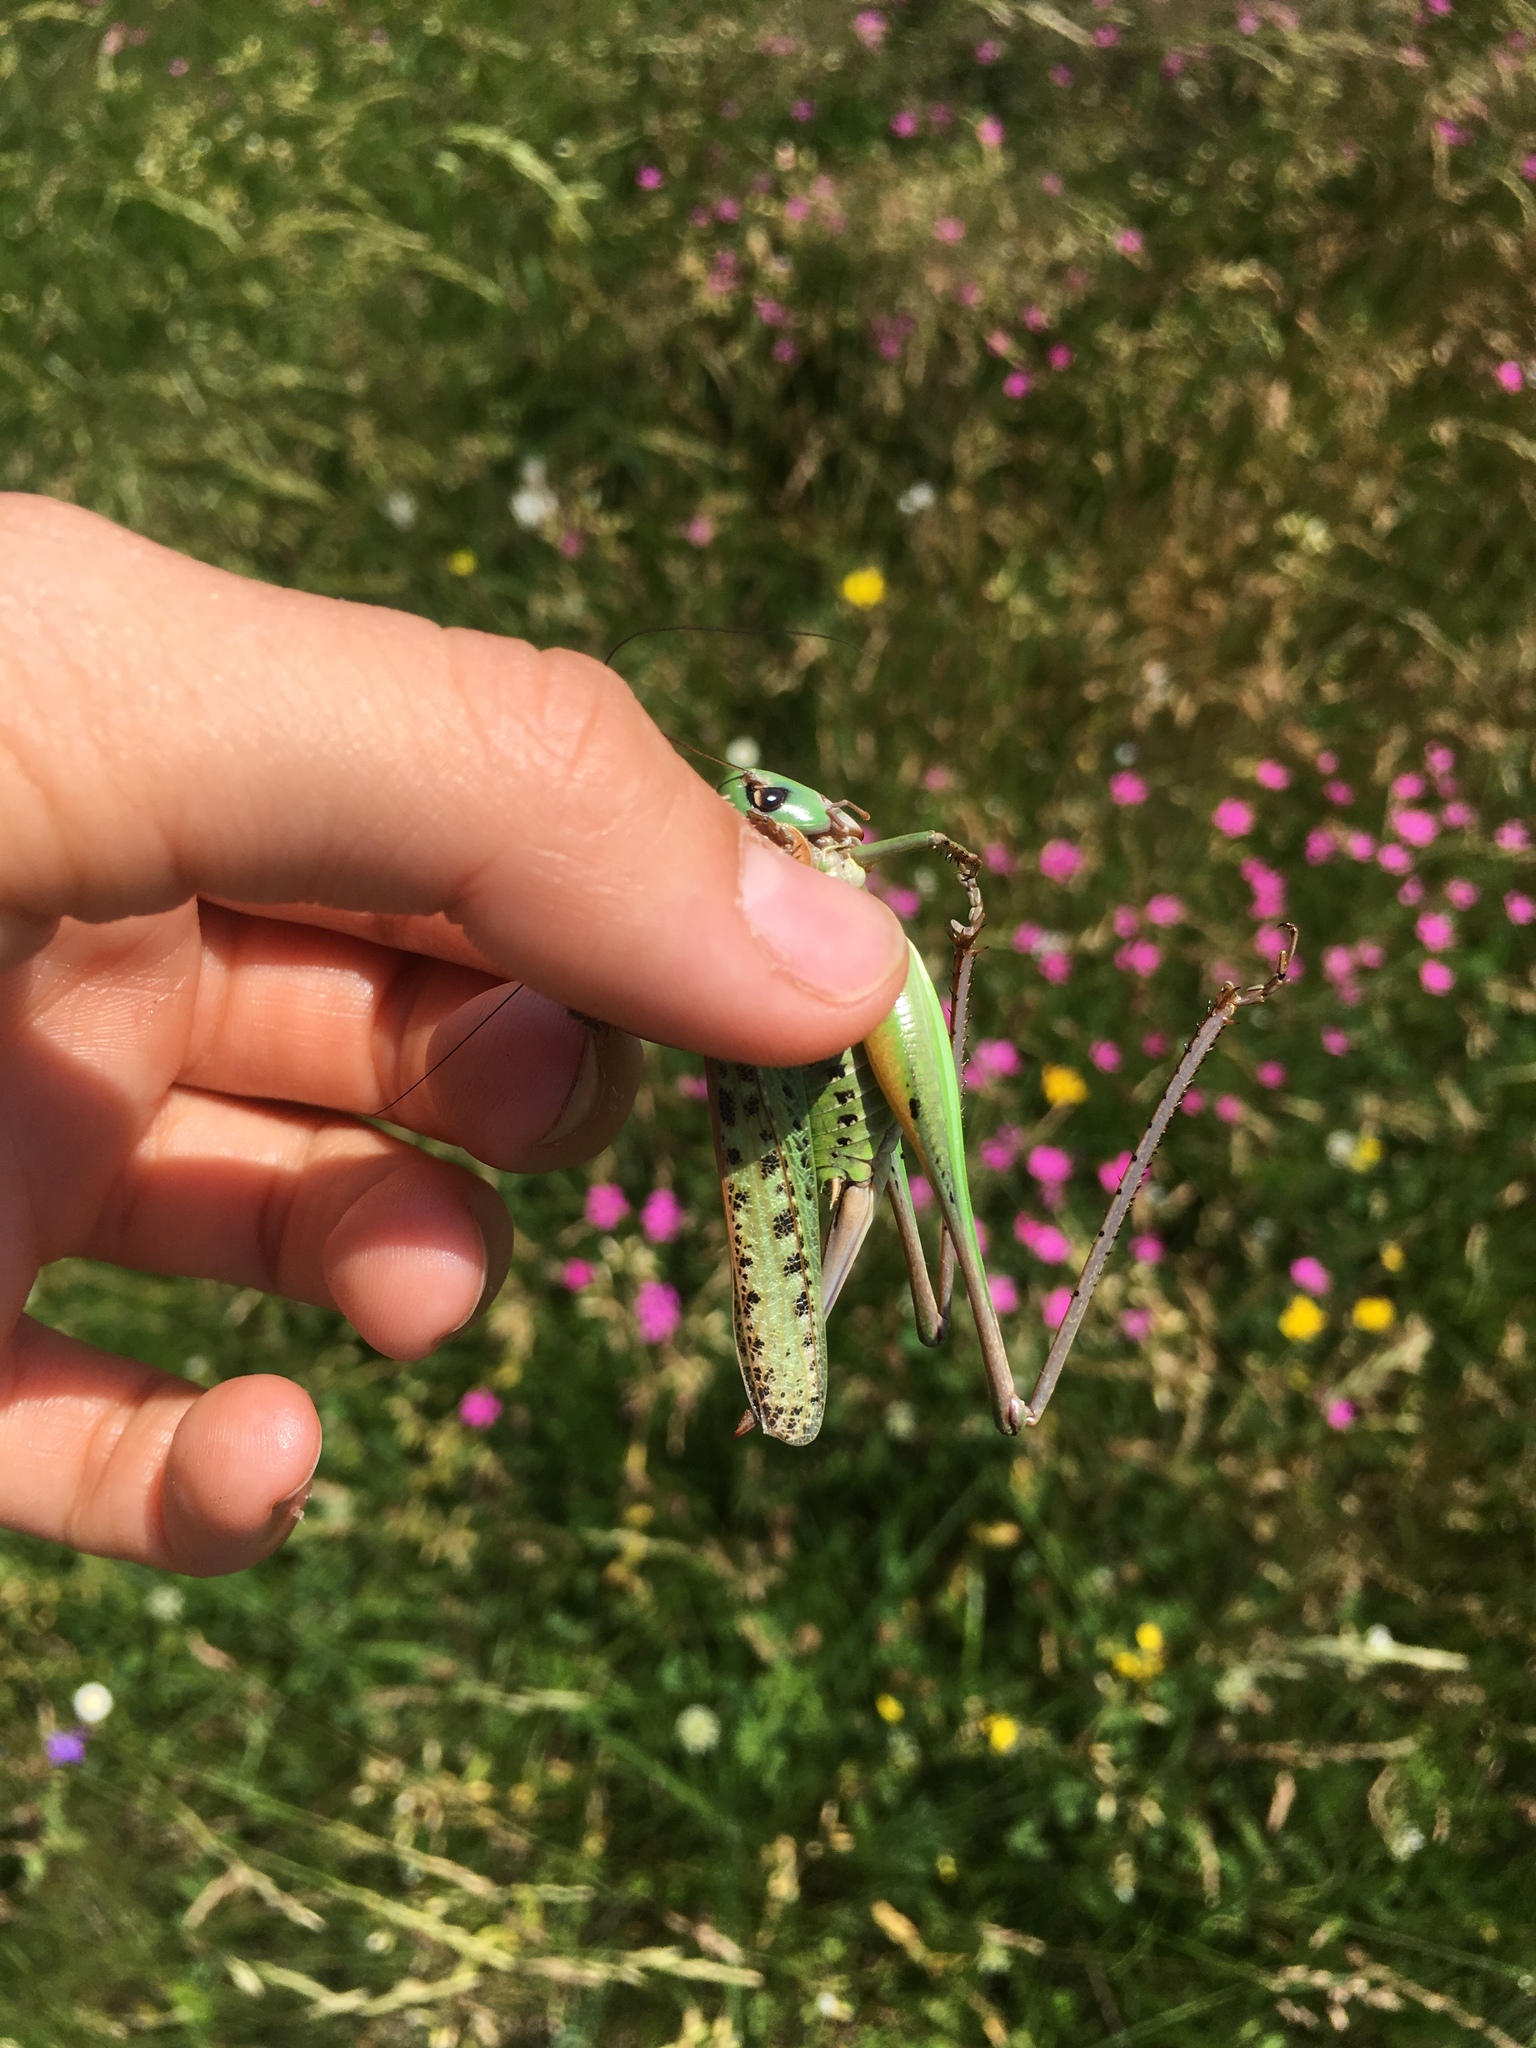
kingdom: Animalia
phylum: Arthropoda
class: Insecta
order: Orthoptera
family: Tettigoniidae
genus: Decticus
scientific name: Decticus verrucivorus
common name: Wart-biter
